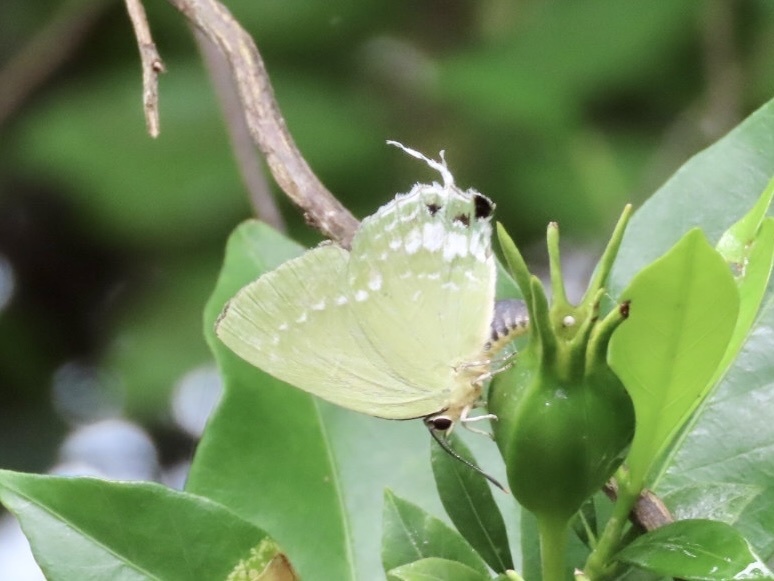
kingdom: Animalia
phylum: Arthropoda
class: Insecta
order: Lepidoptera
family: Lycaenidae
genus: Artipe
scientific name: Artipe eryx
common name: Green flash
